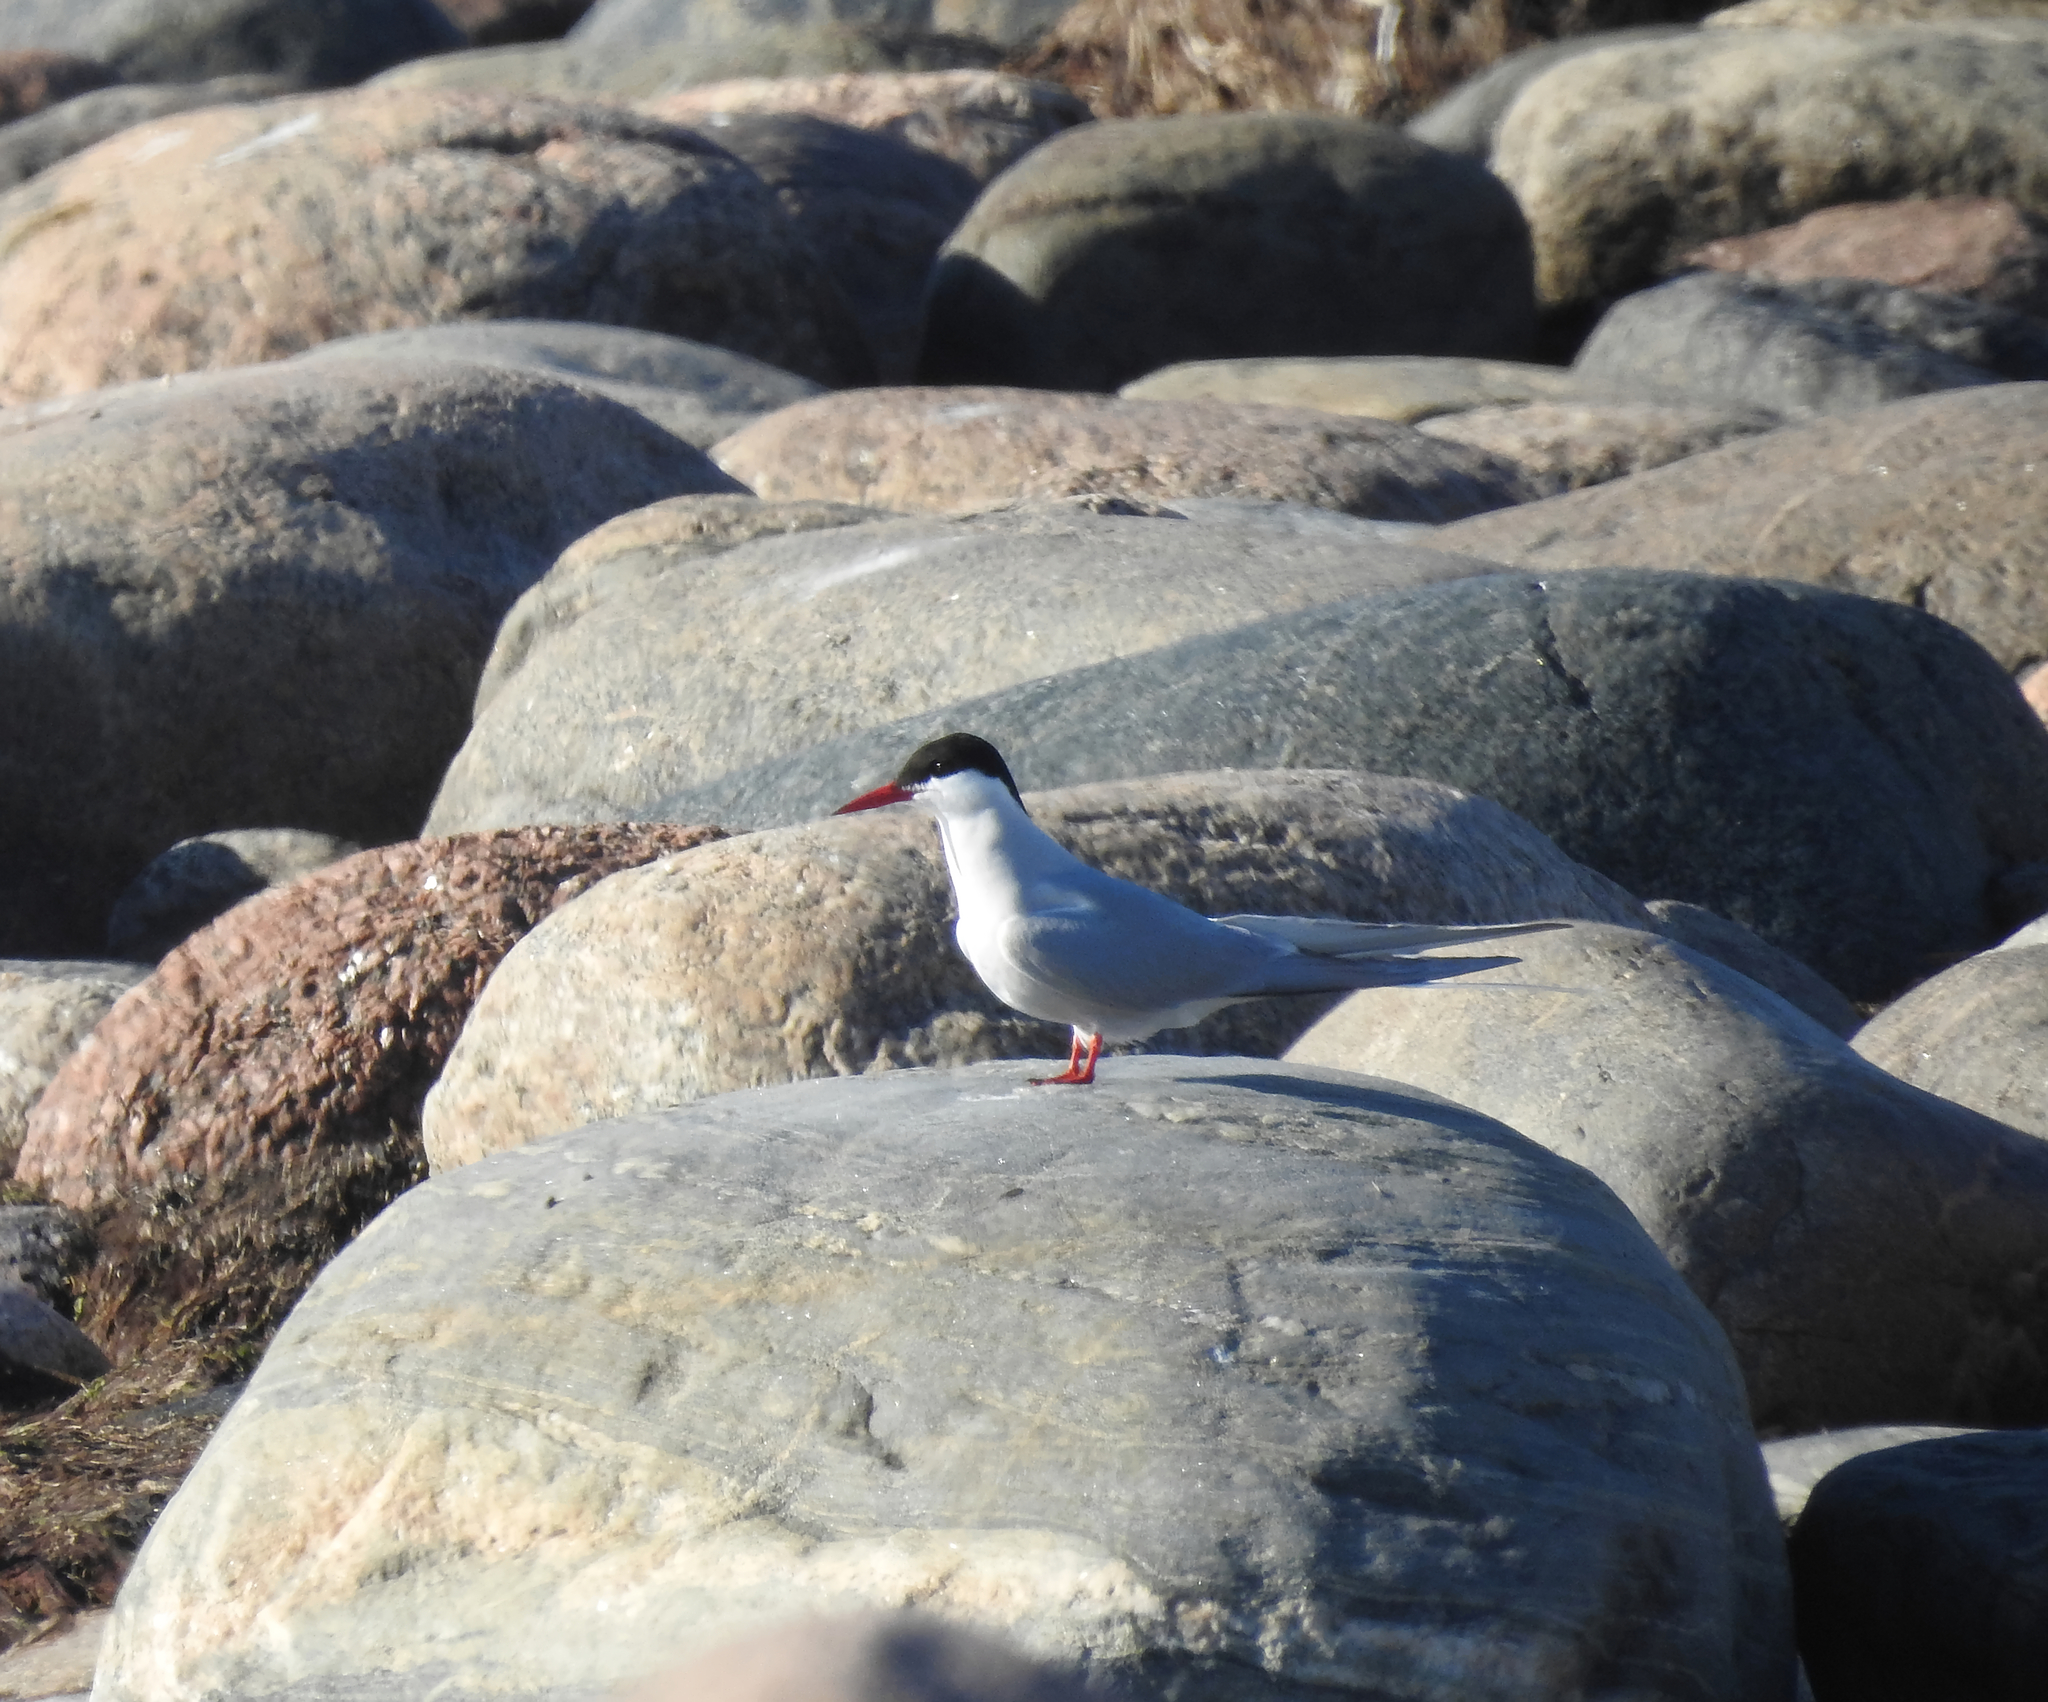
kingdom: Animalia
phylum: Chordata
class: Aves
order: Charadriiformes
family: Laridae
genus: Sterna
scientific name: Sterna paradisaea
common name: Arctic tern
